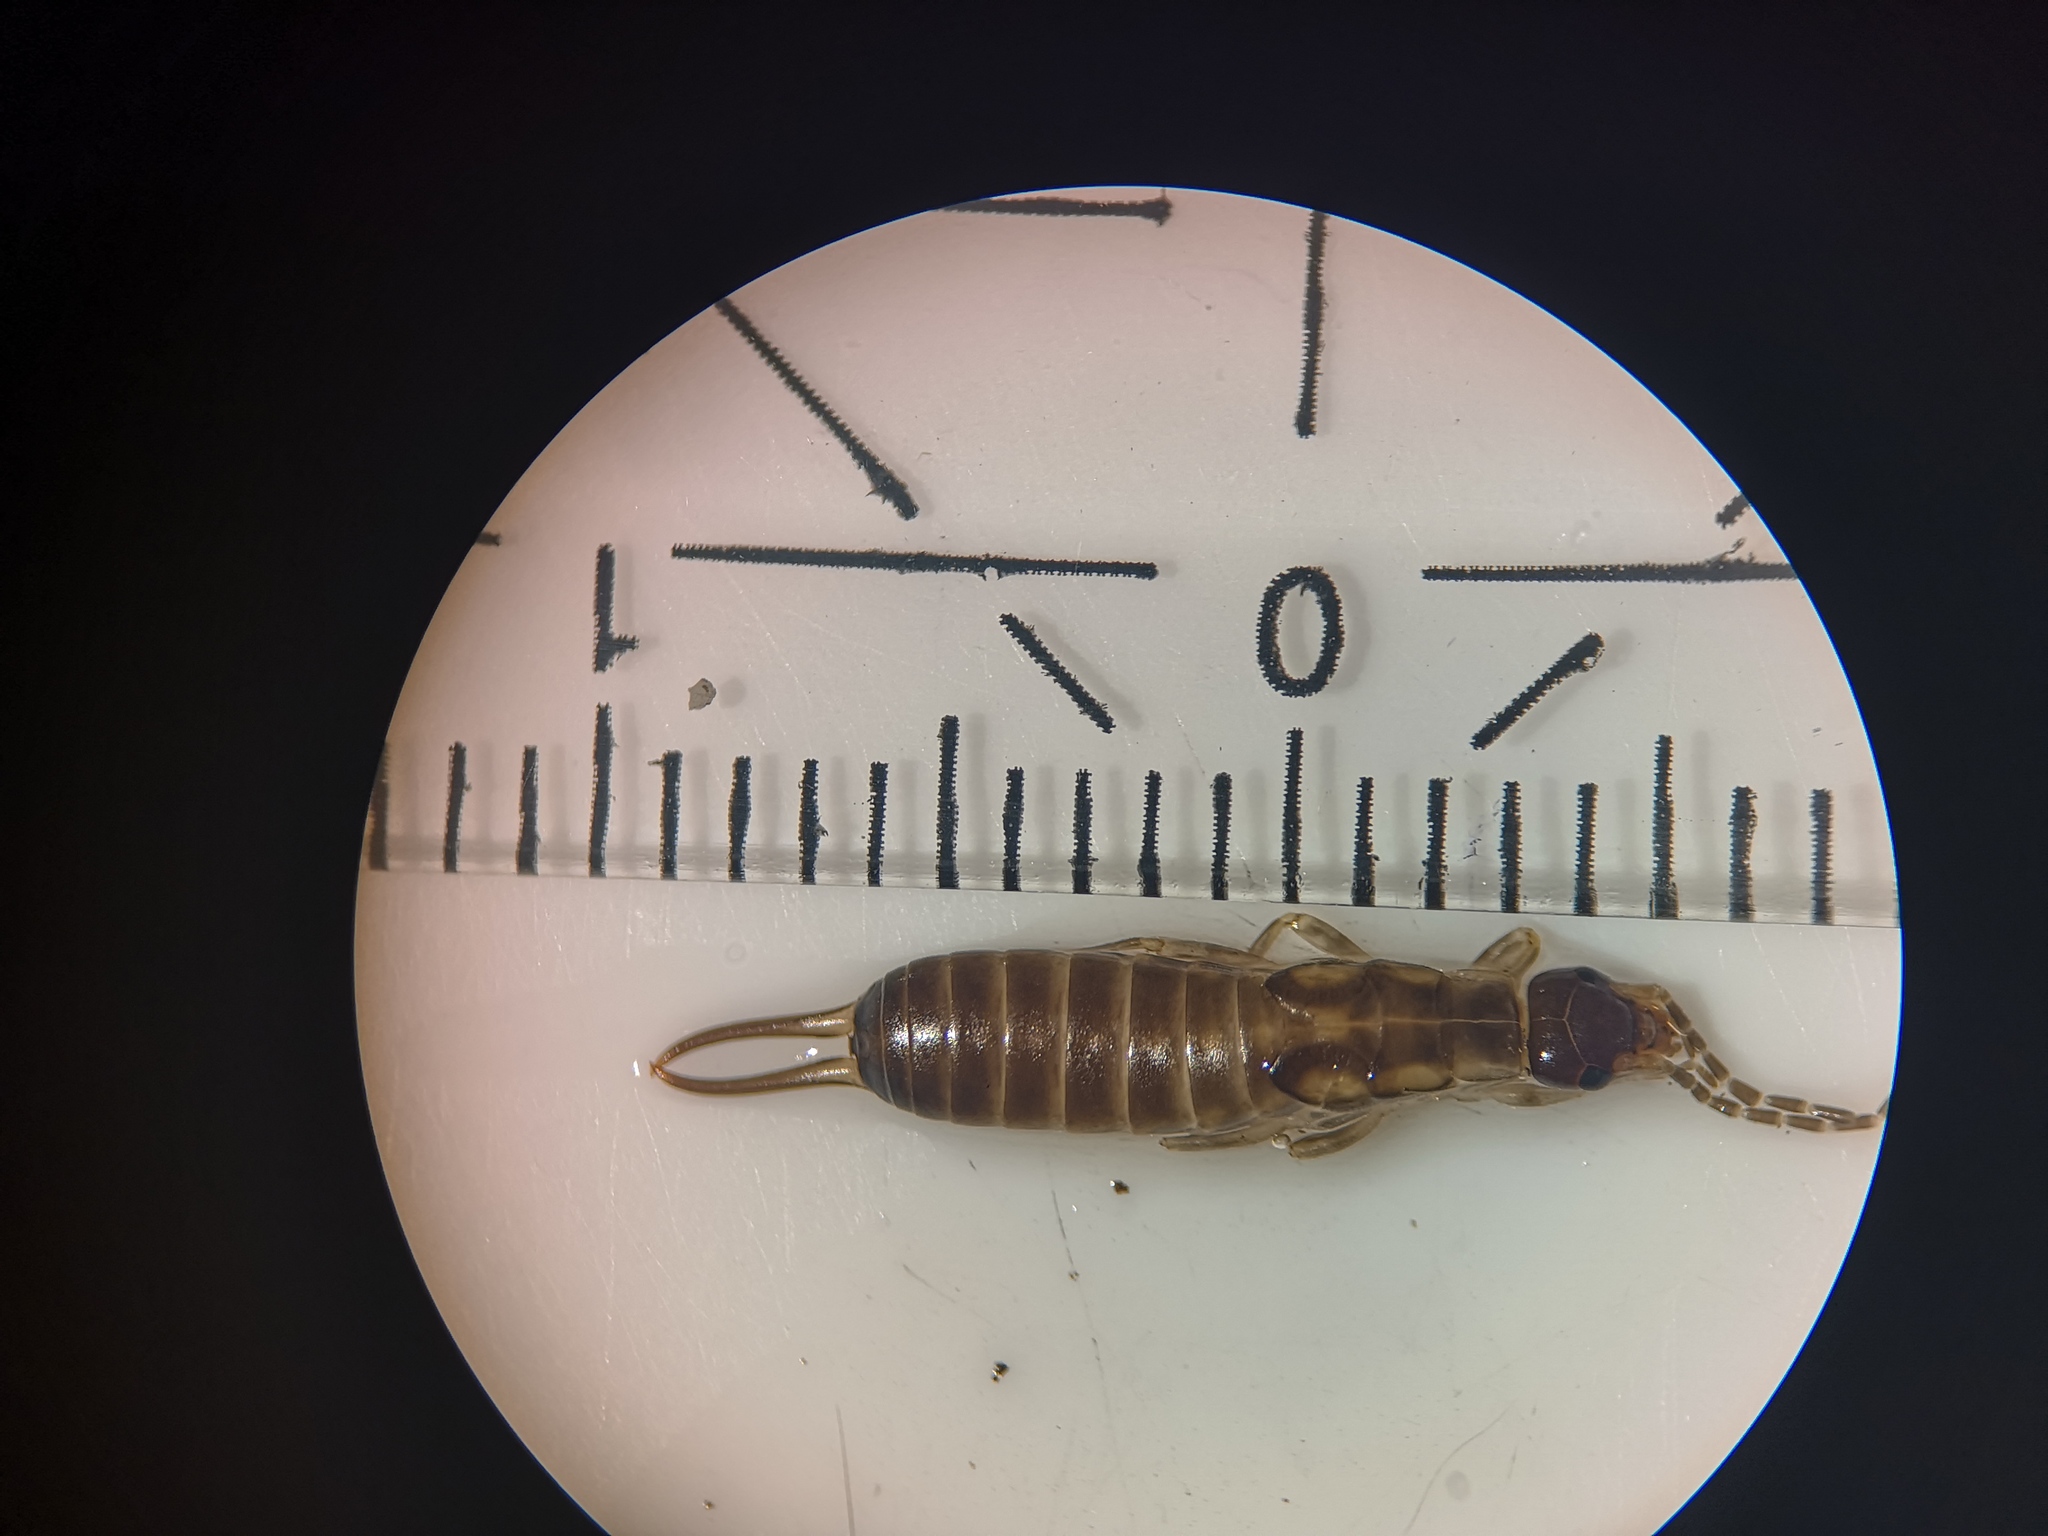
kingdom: Animalia
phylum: Arthropoda
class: Insecta
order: Dermaptera
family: Forficulidae
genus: Forficula
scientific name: Forficula
